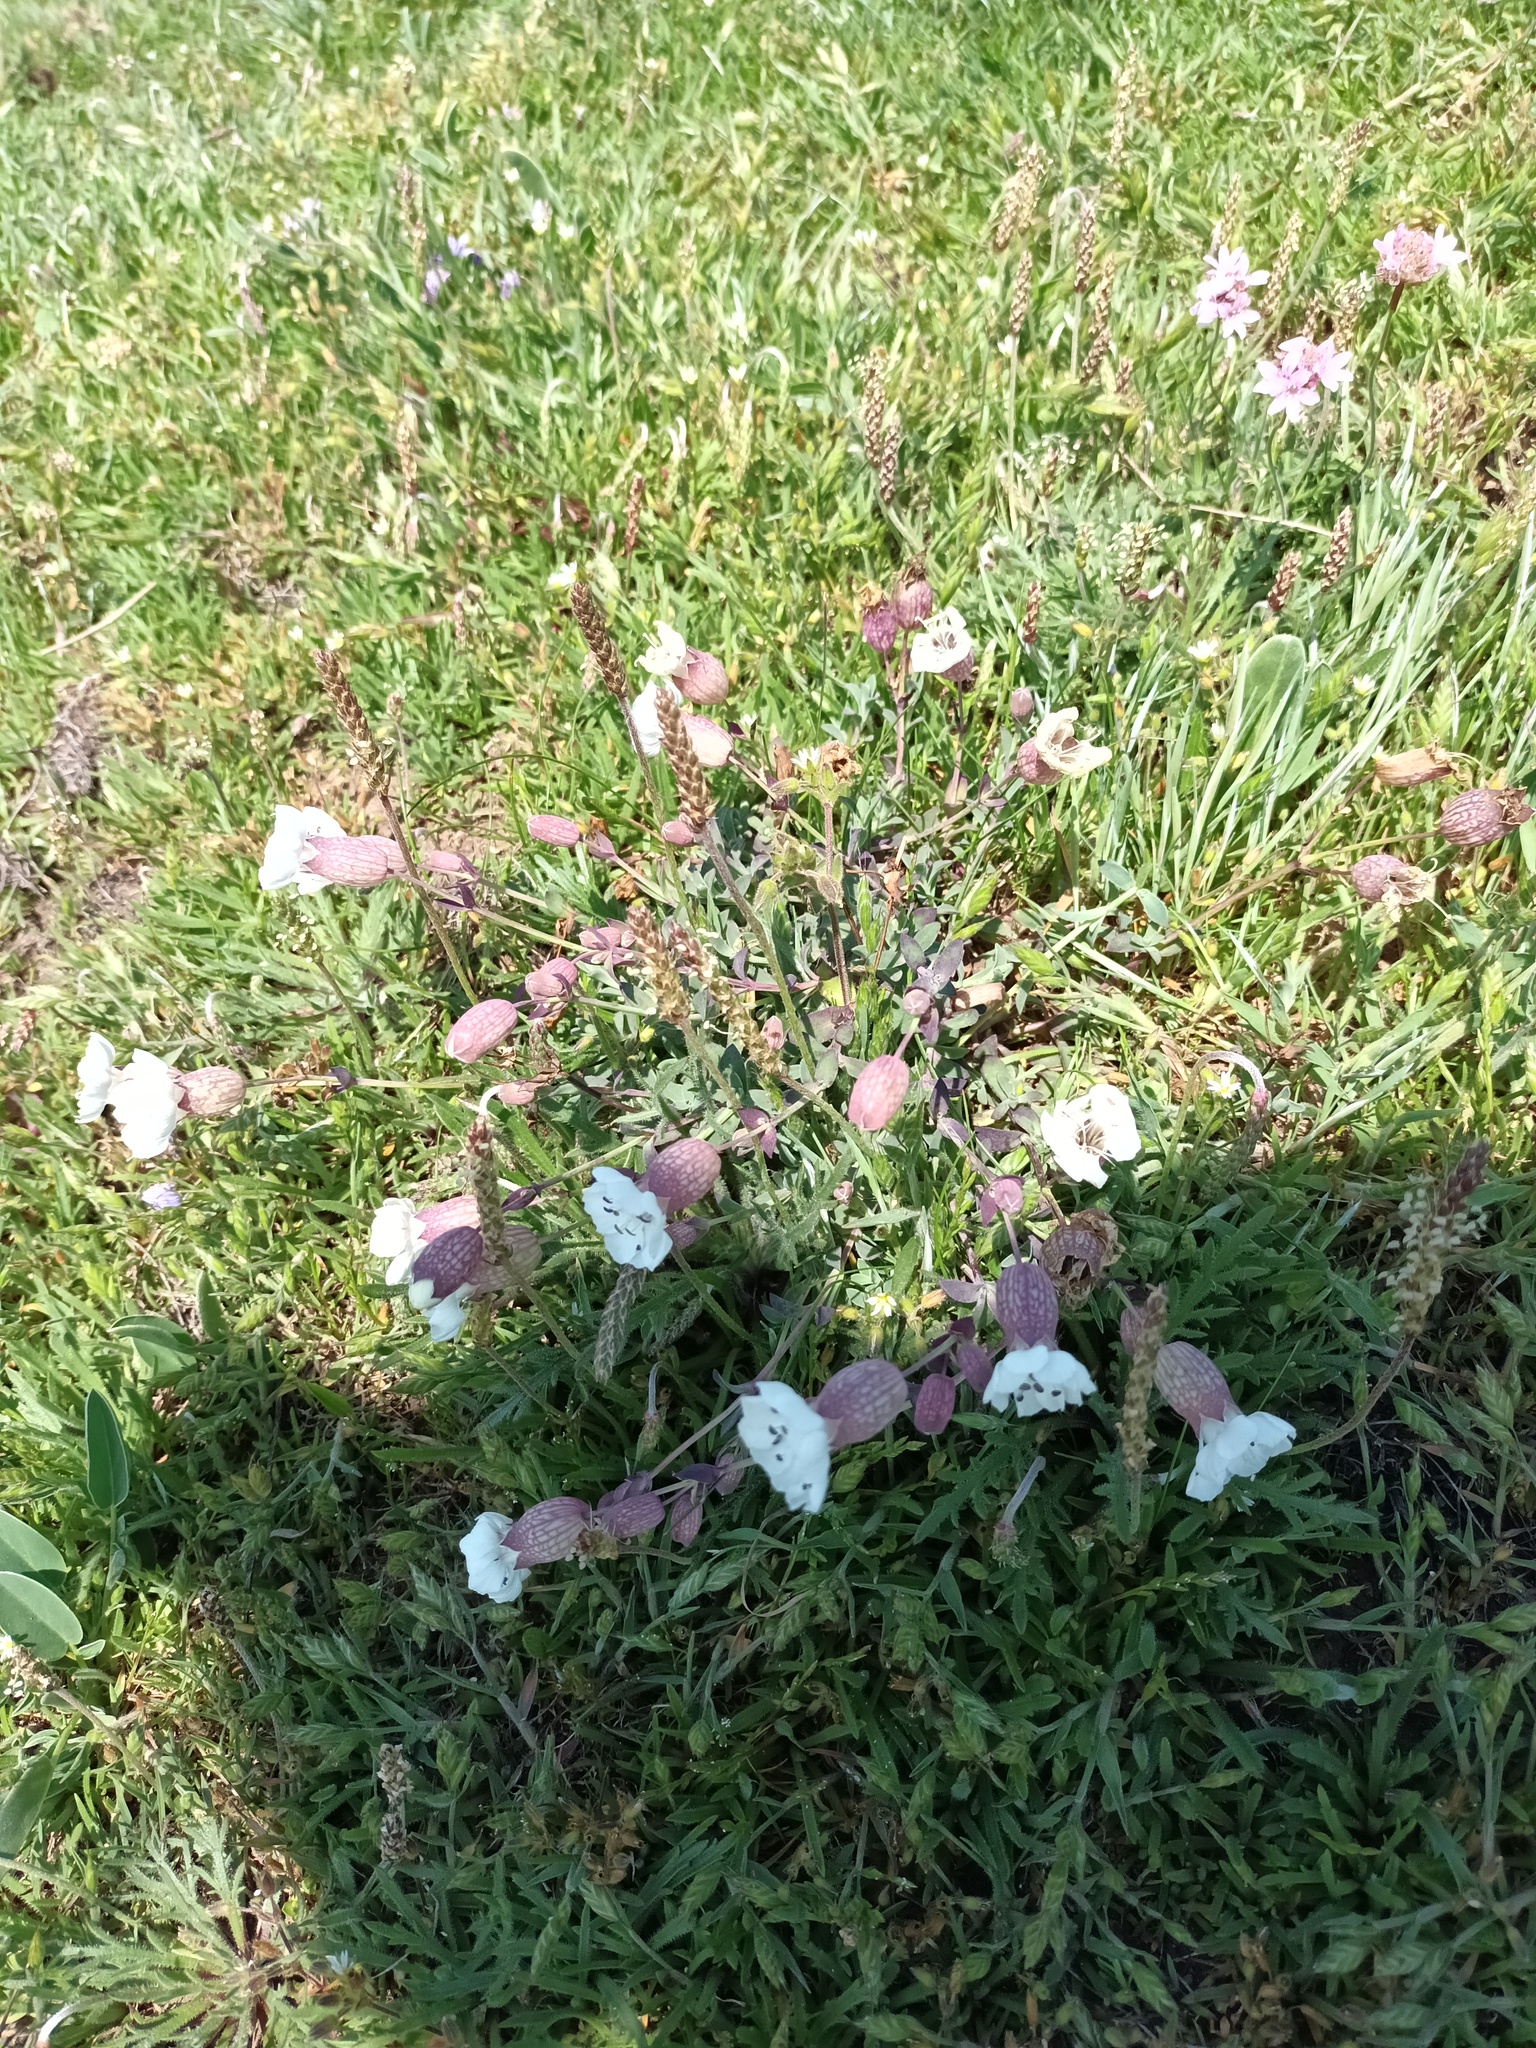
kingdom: Plantae
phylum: Tracheophyta
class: Magnoliopsida
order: Caryophyllales
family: Caryophyllaceae
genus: Silene
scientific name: Silene uniflora
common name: Sea campion
